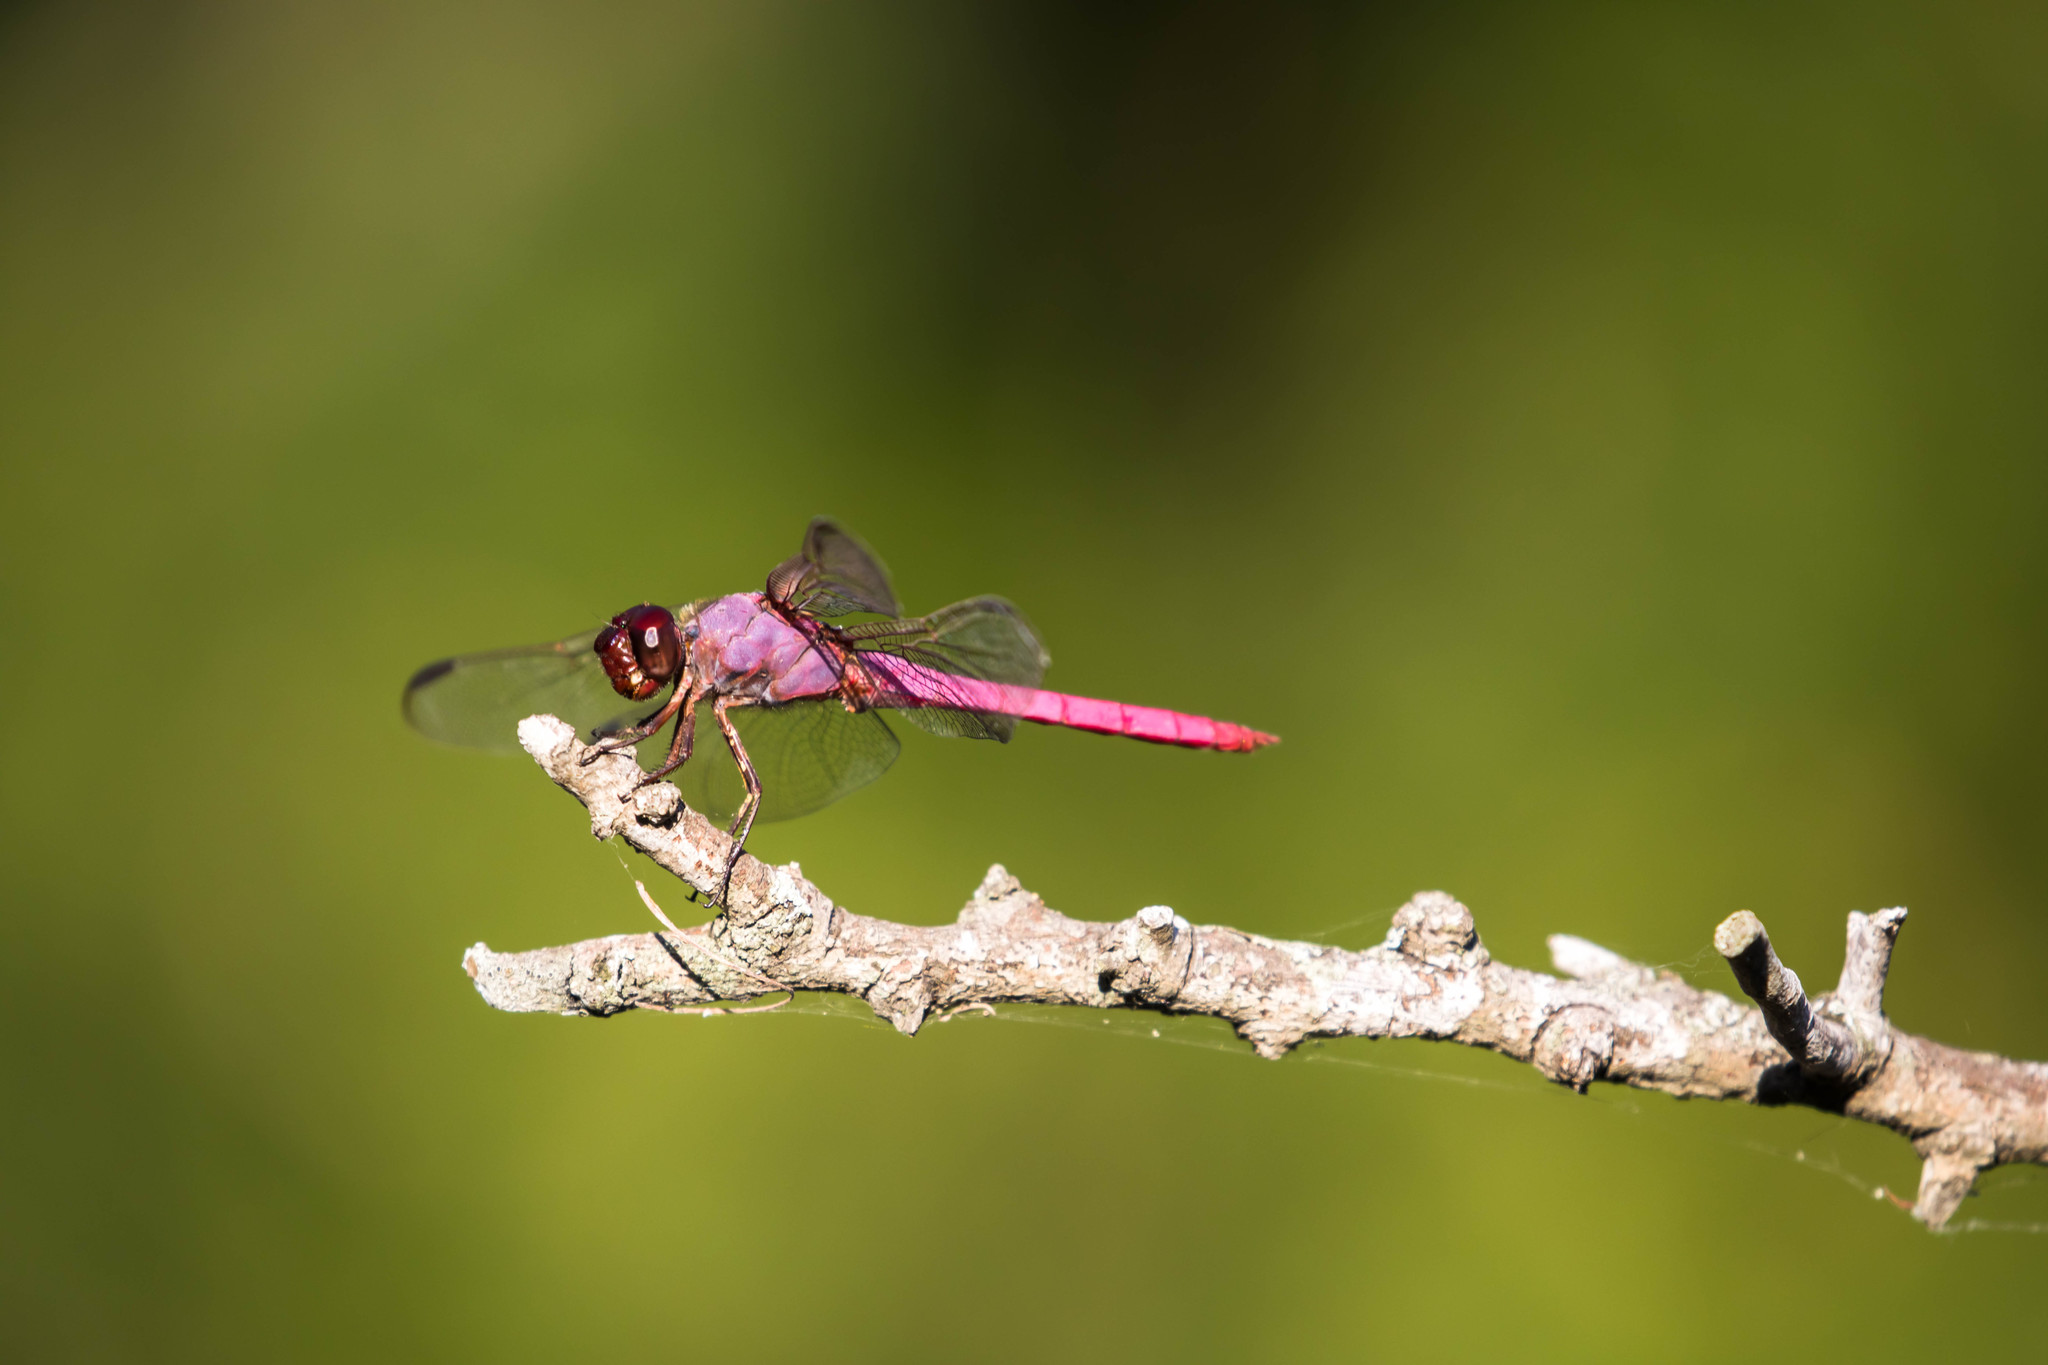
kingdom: Animalia
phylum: Arthropoda
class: Insecta
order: Odonata
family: Libellulidae
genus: Orthemis
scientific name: Orthemis ferruginea
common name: Roseate skimmer
